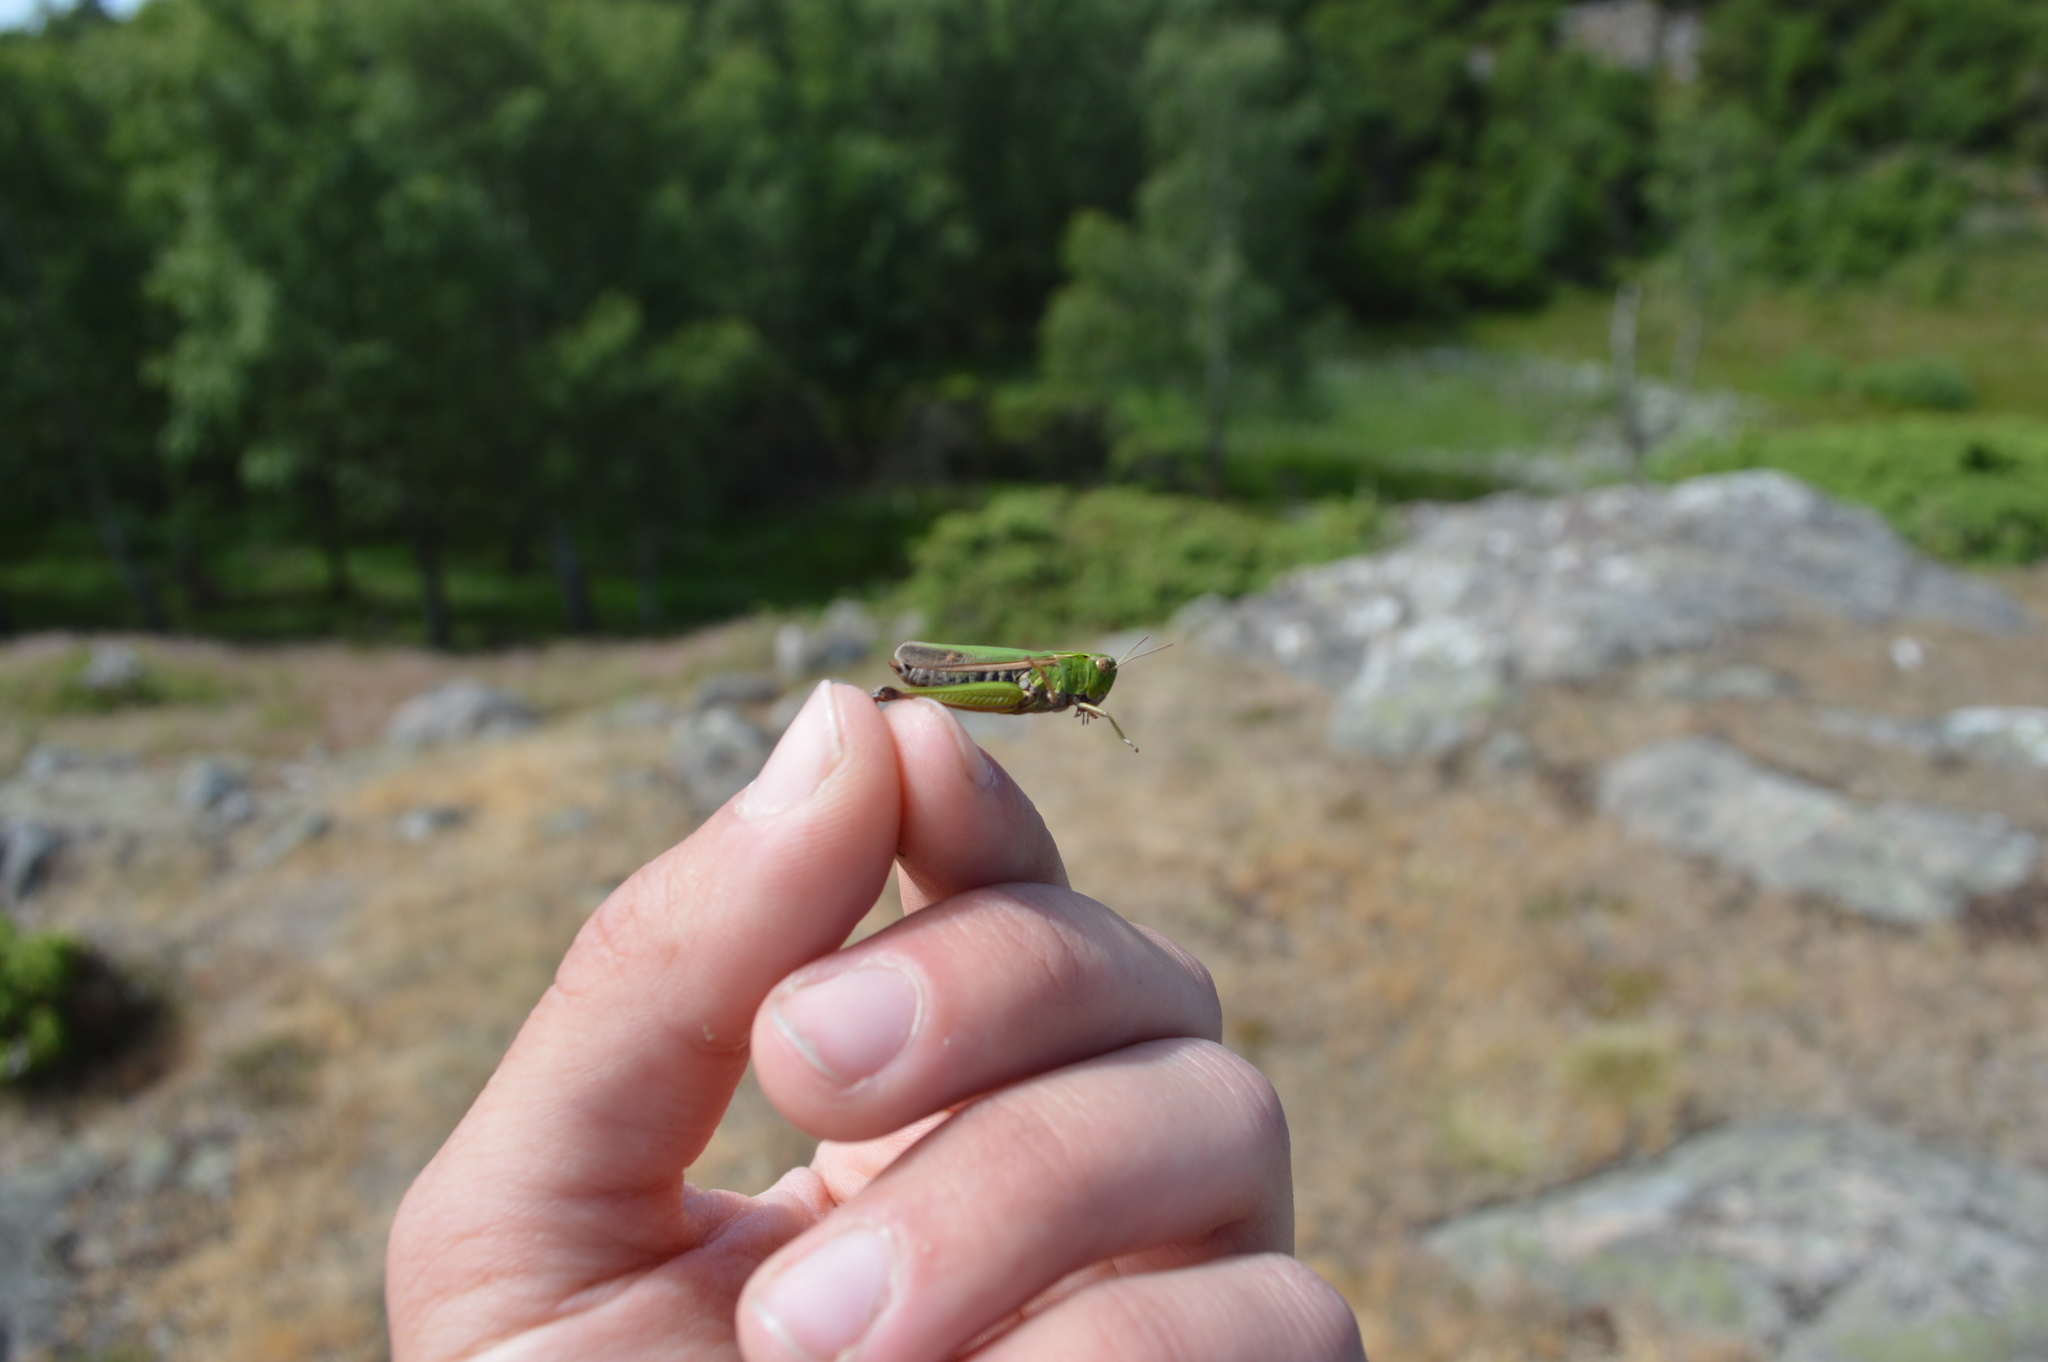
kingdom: Animalia
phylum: Arthropoda
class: Insecta
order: Orthoptera
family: Acrididae
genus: Omocestus
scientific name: Omocestus viridulus
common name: Common green grasshopper
